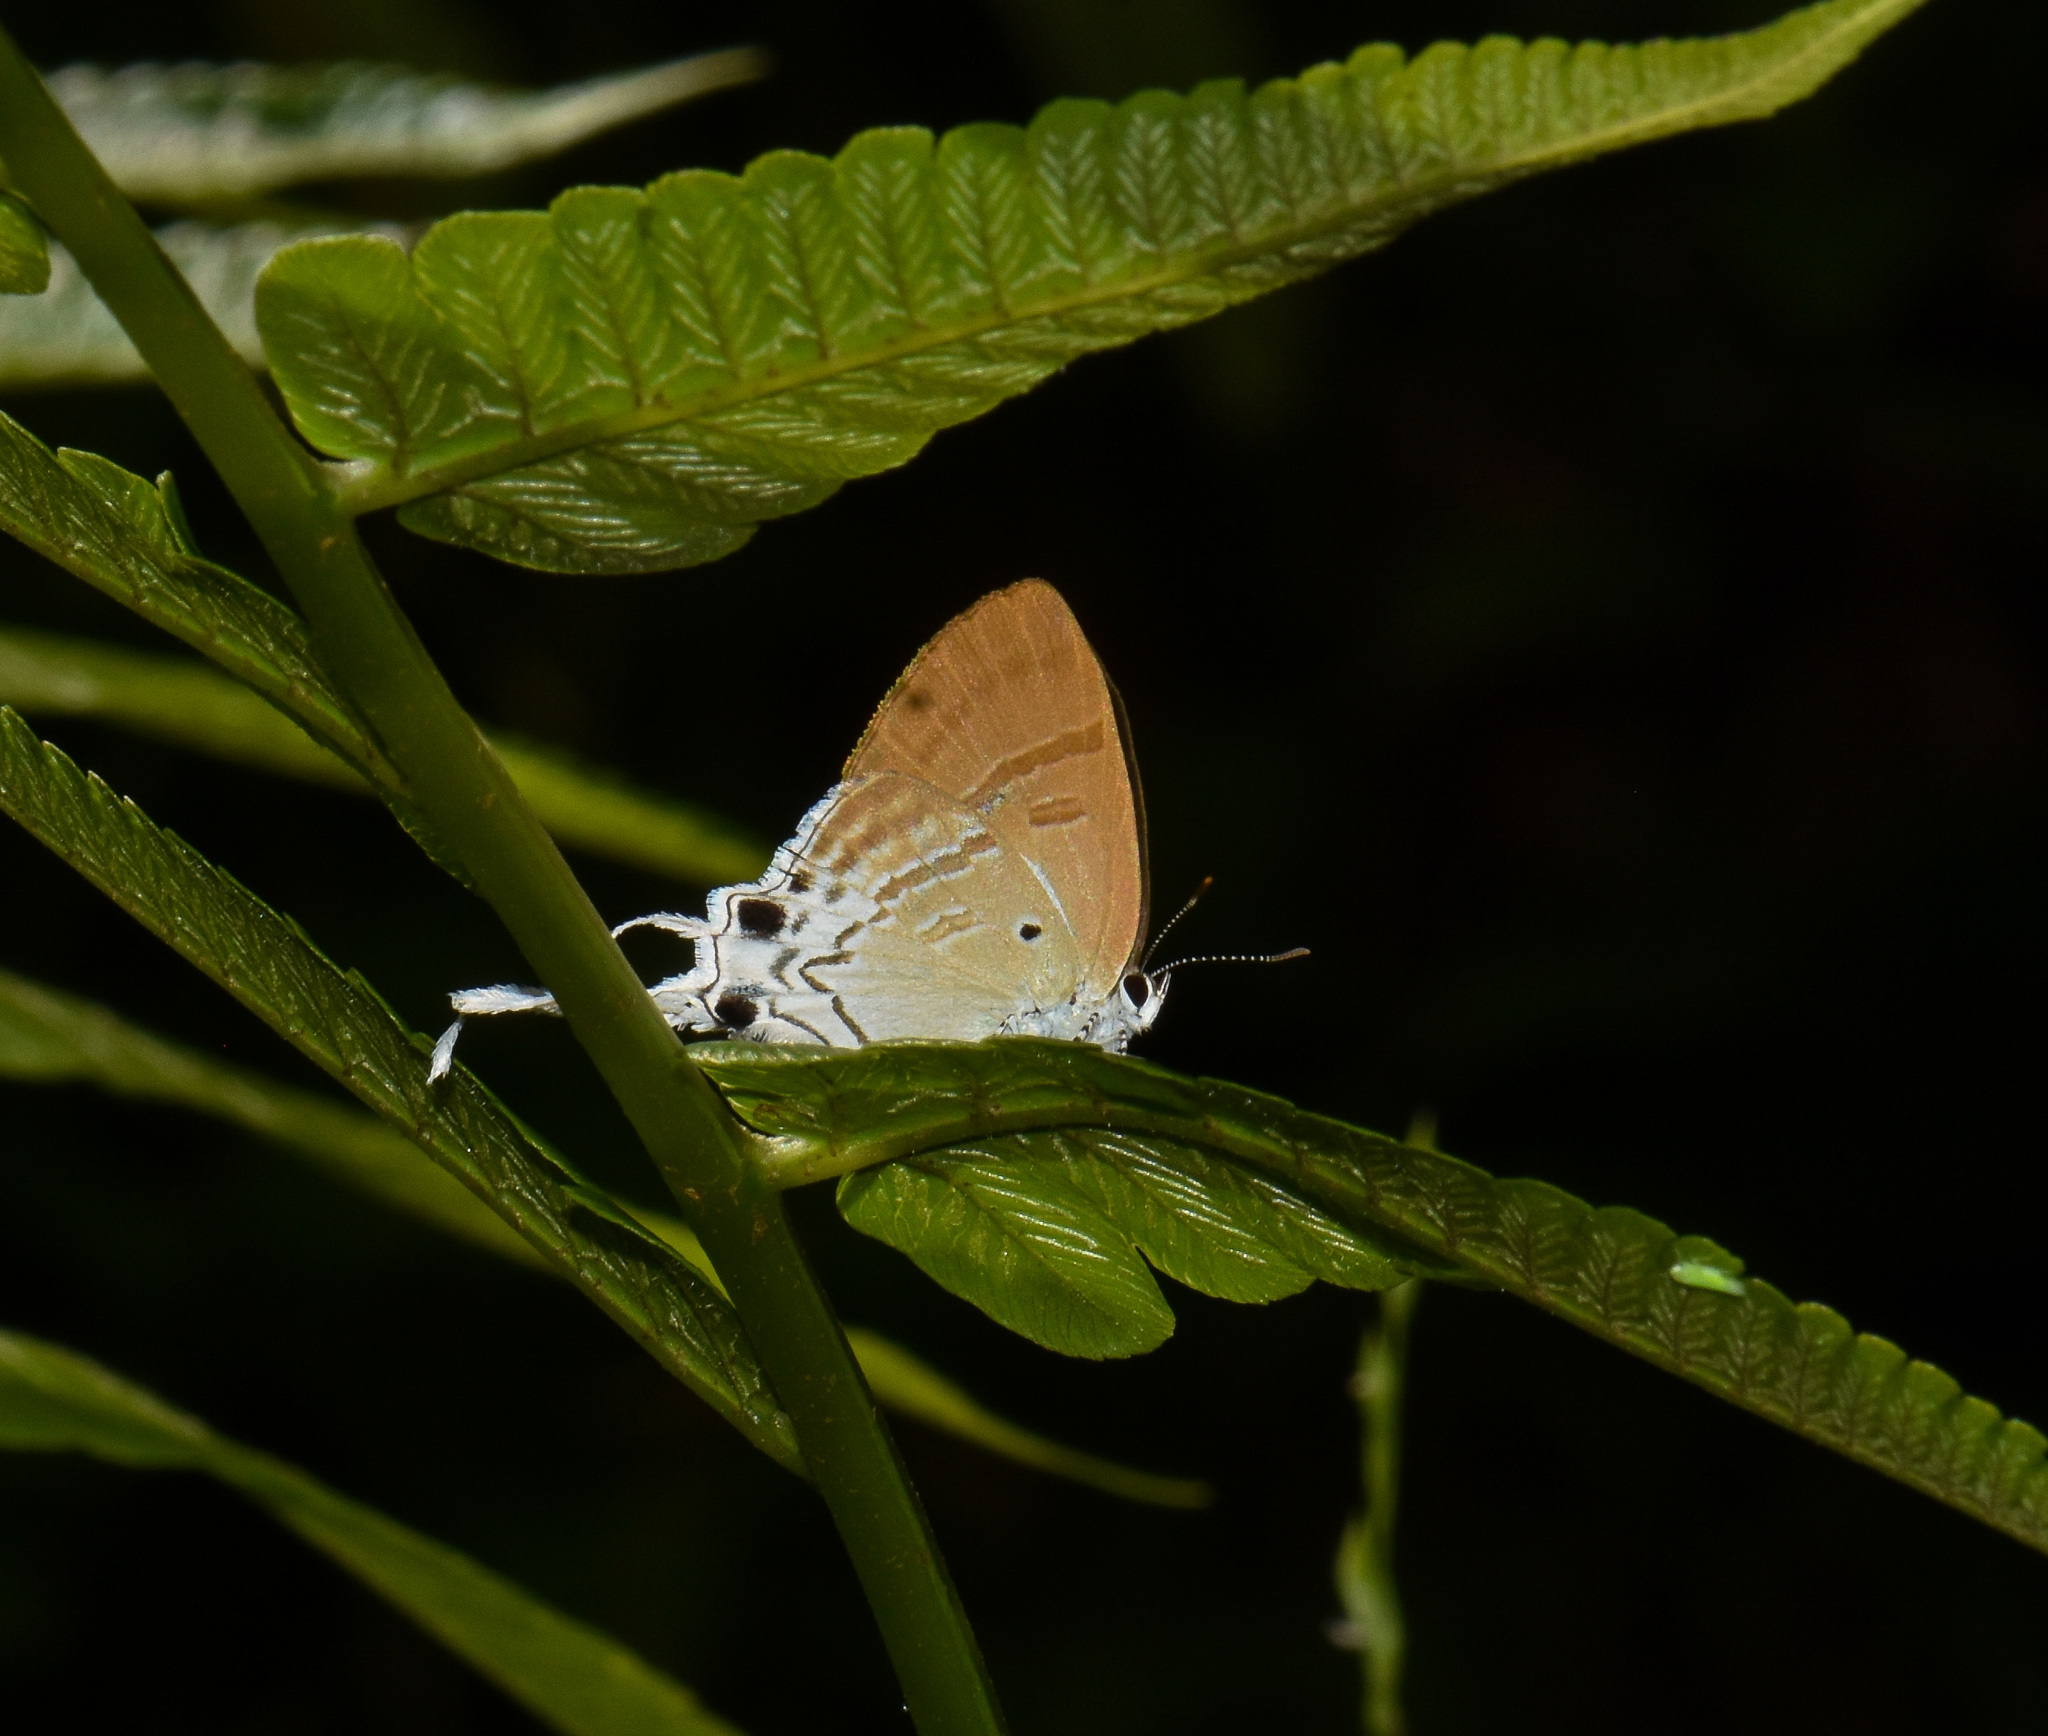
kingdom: Animalia
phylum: Arthropoda
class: Insecta
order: Lepidoptera
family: Lycaenidae
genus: Zeltus
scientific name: Zeltus amasa
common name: Fluffy tit
